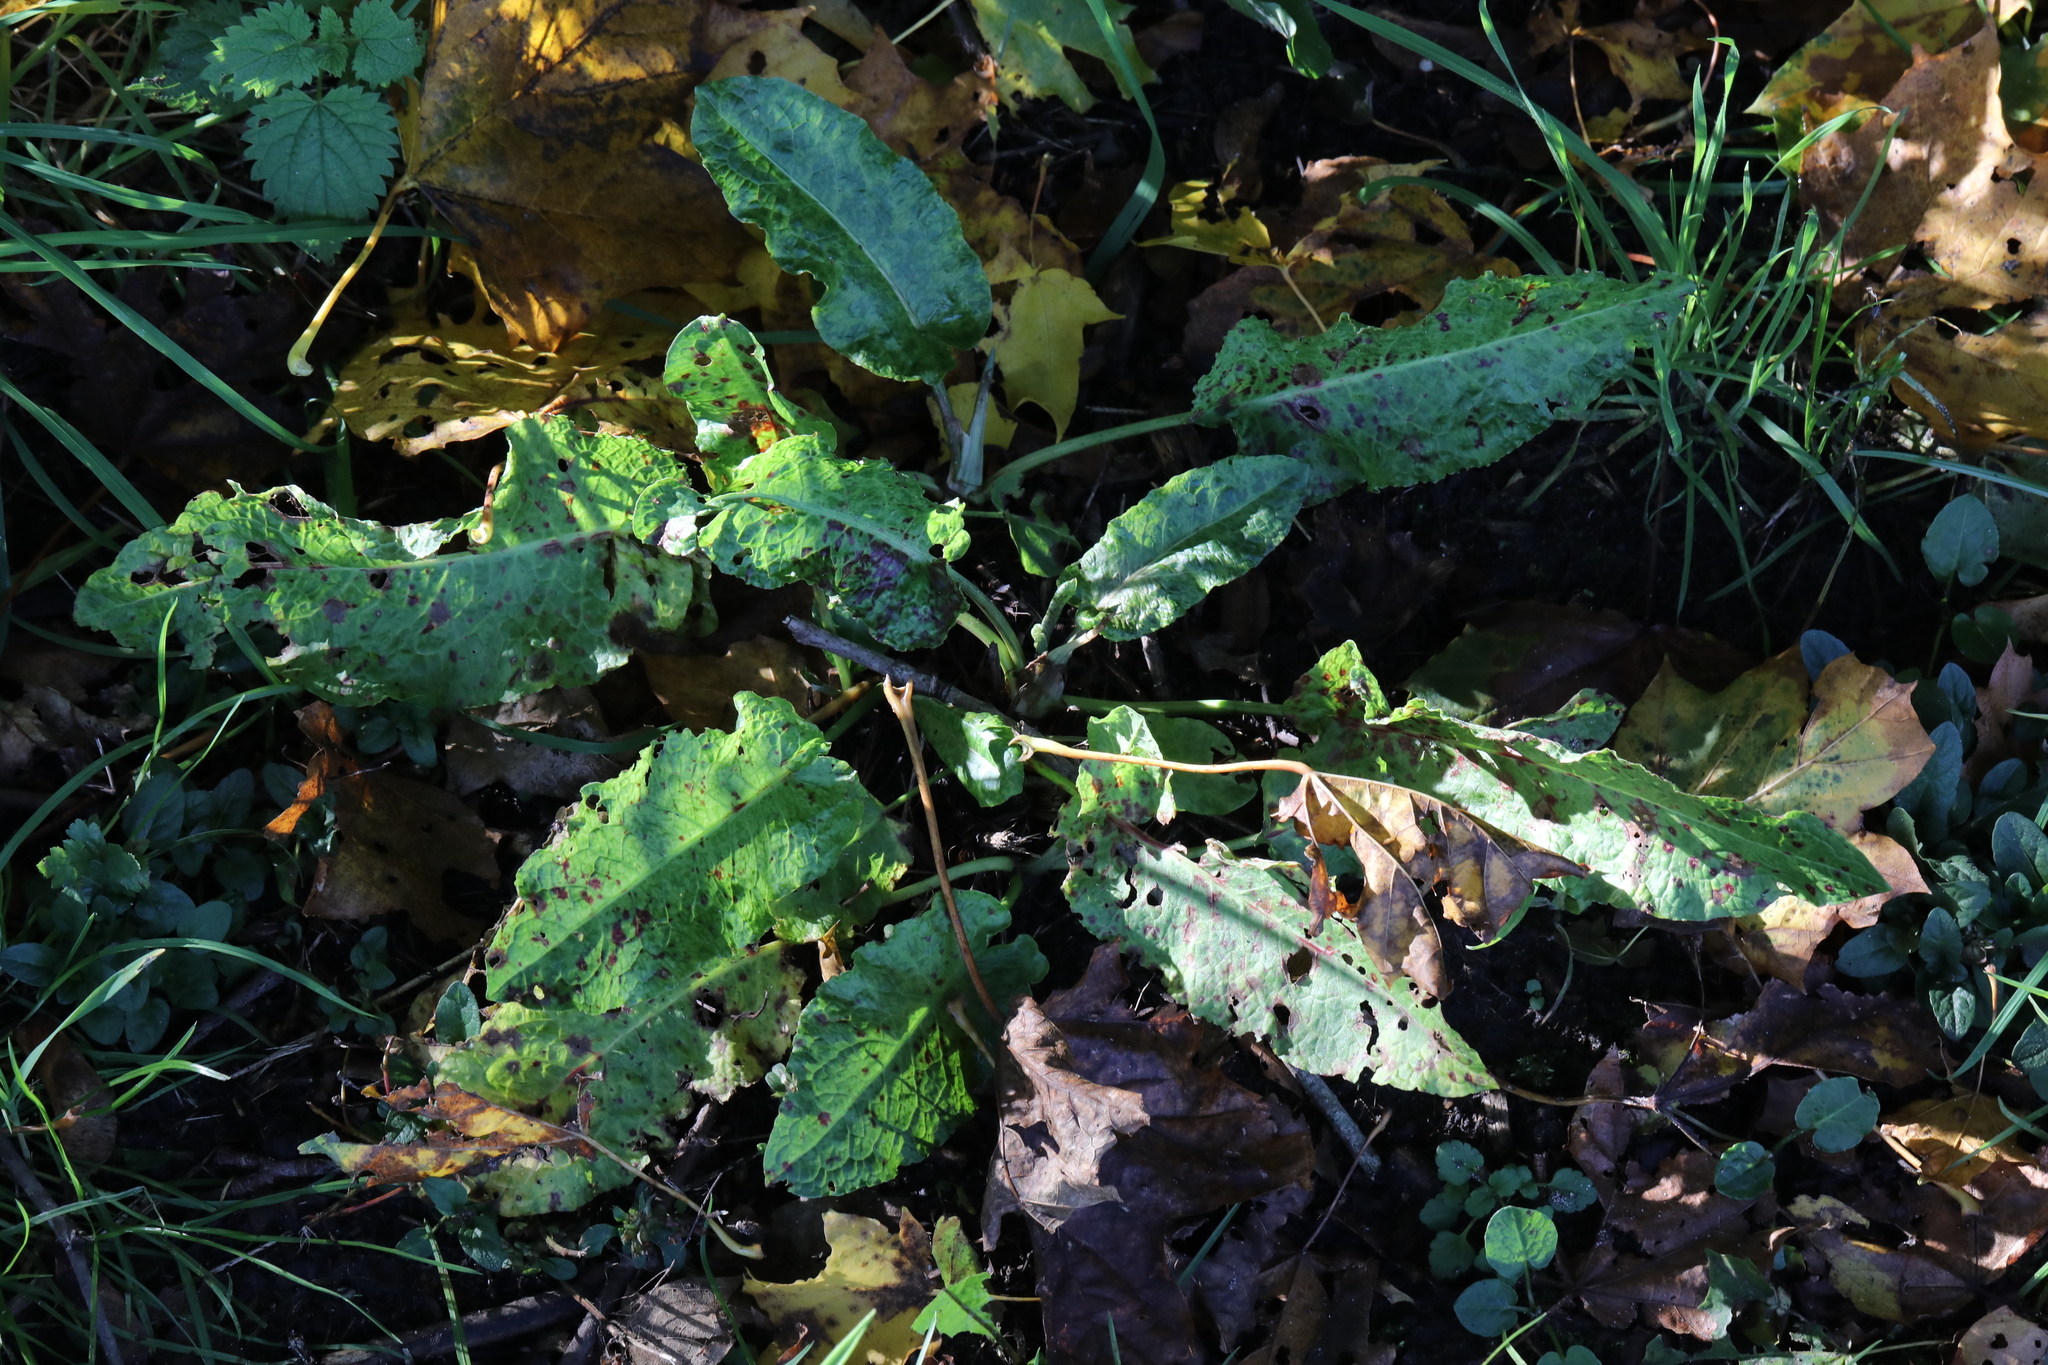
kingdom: Plantae
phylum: Tracheophyta
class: Magnoliopsida
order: Caryophyllales
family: Polygonaceae
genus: Rumex
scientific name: Rumex obtusifolius
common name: Bitter dock
